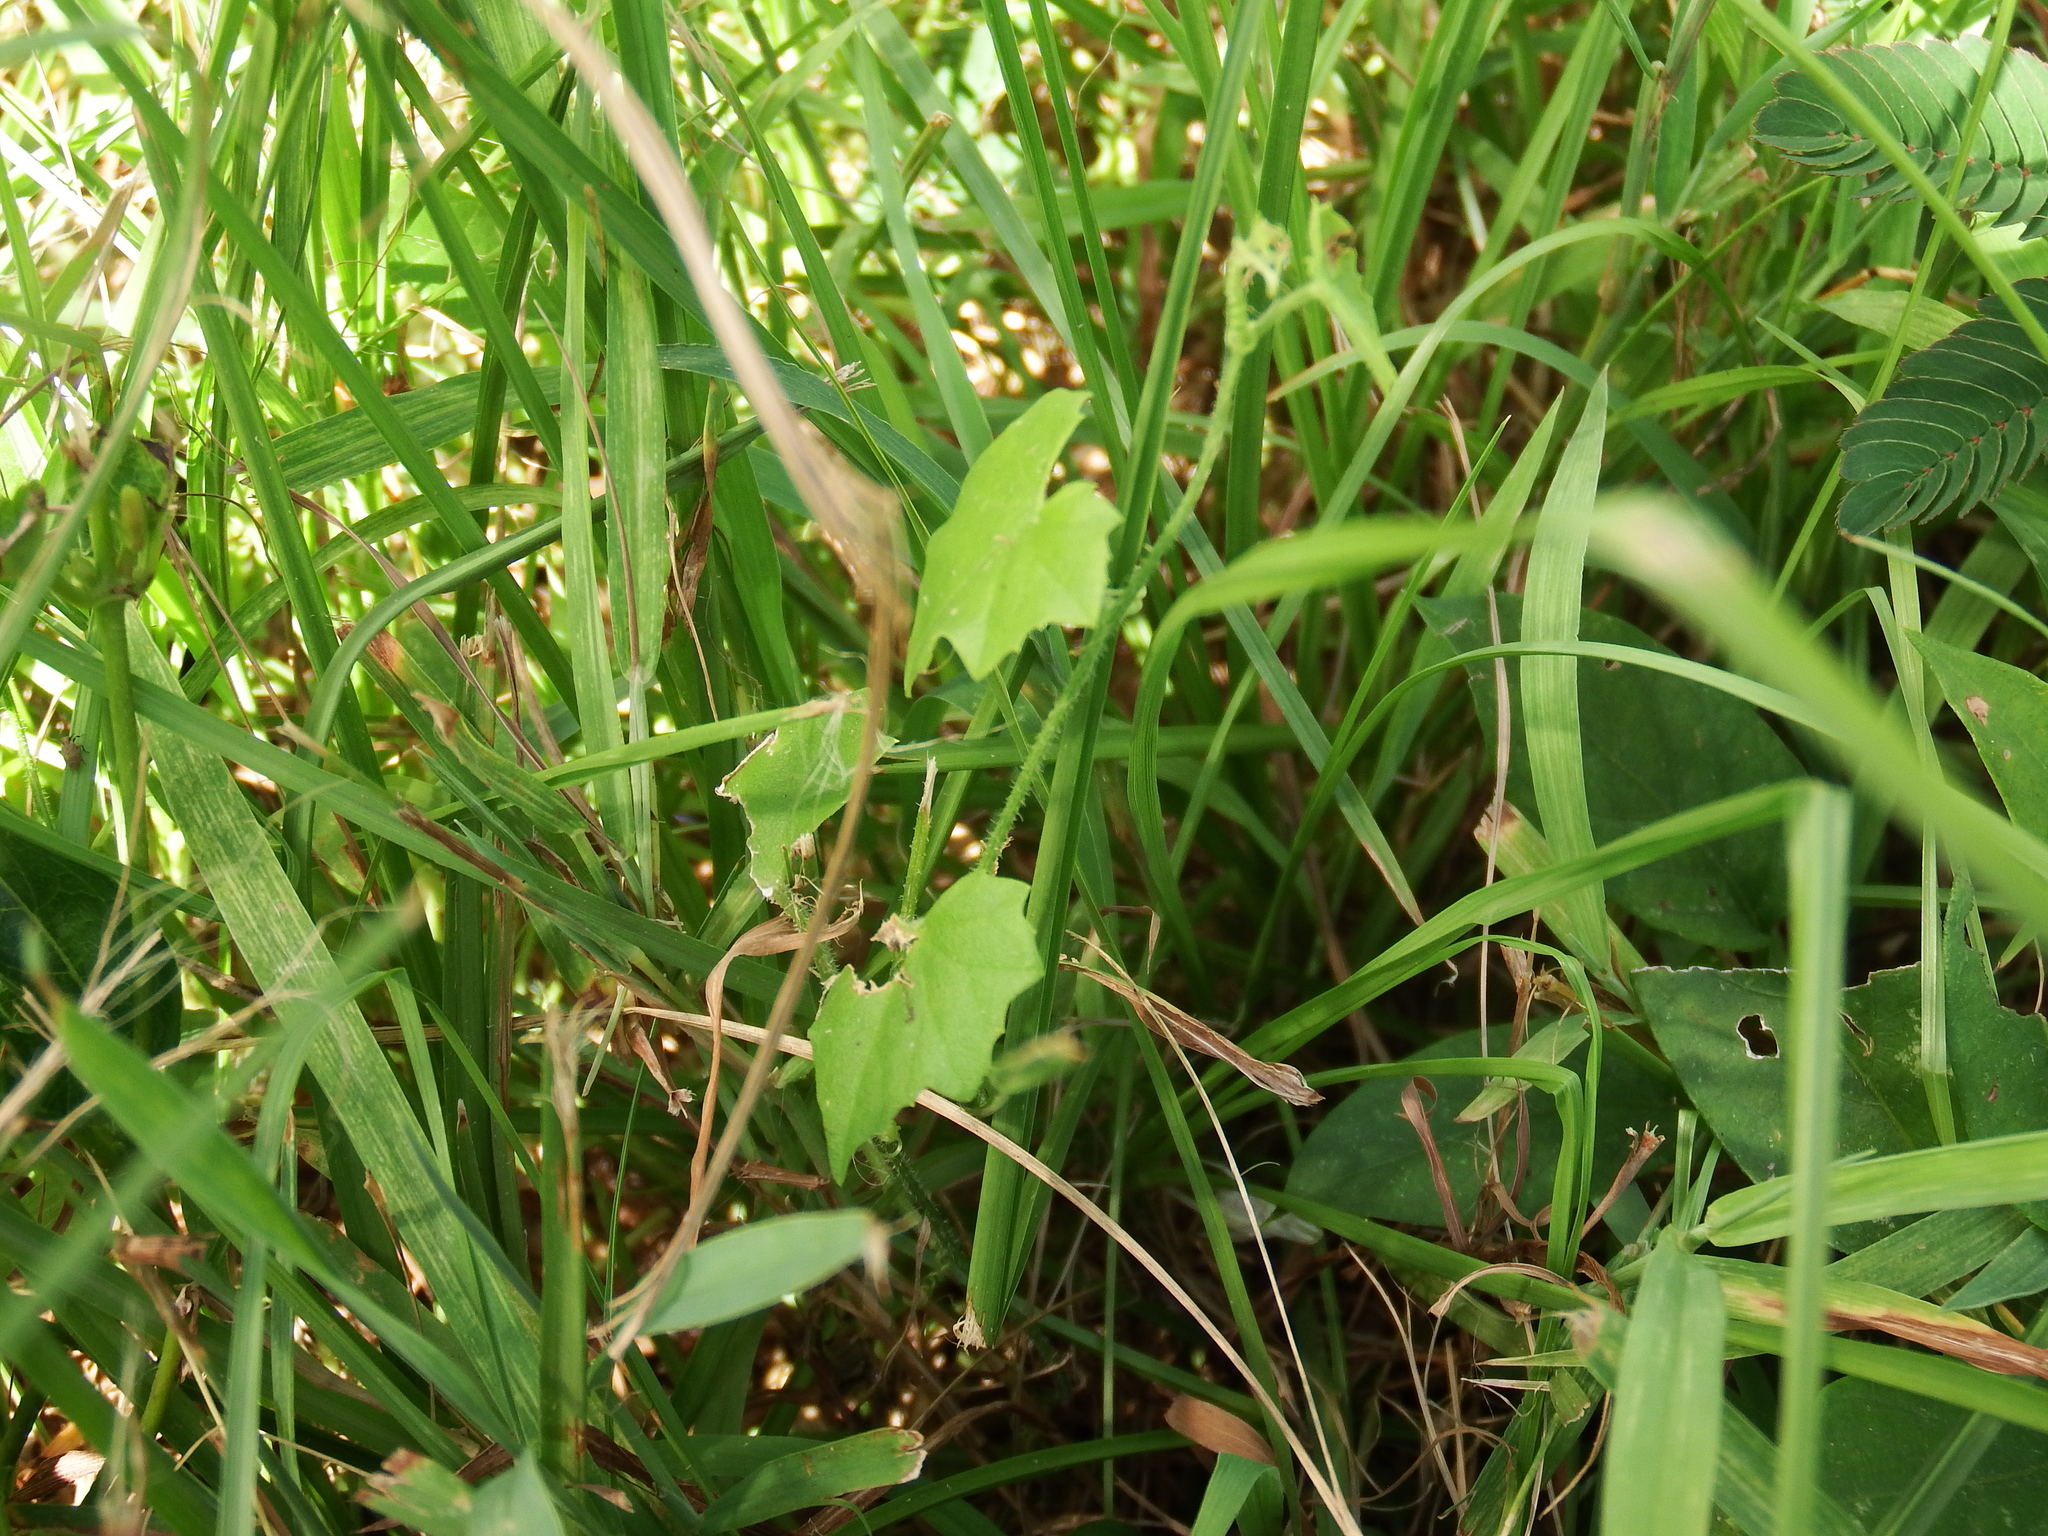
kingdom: Plantae
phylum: Tracheophyta
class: Magnoliopsida
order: Cucurbitales
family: Cucurbitaceae
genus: Melothria
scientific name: Melothria pendula
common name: Creeping-cucumber
